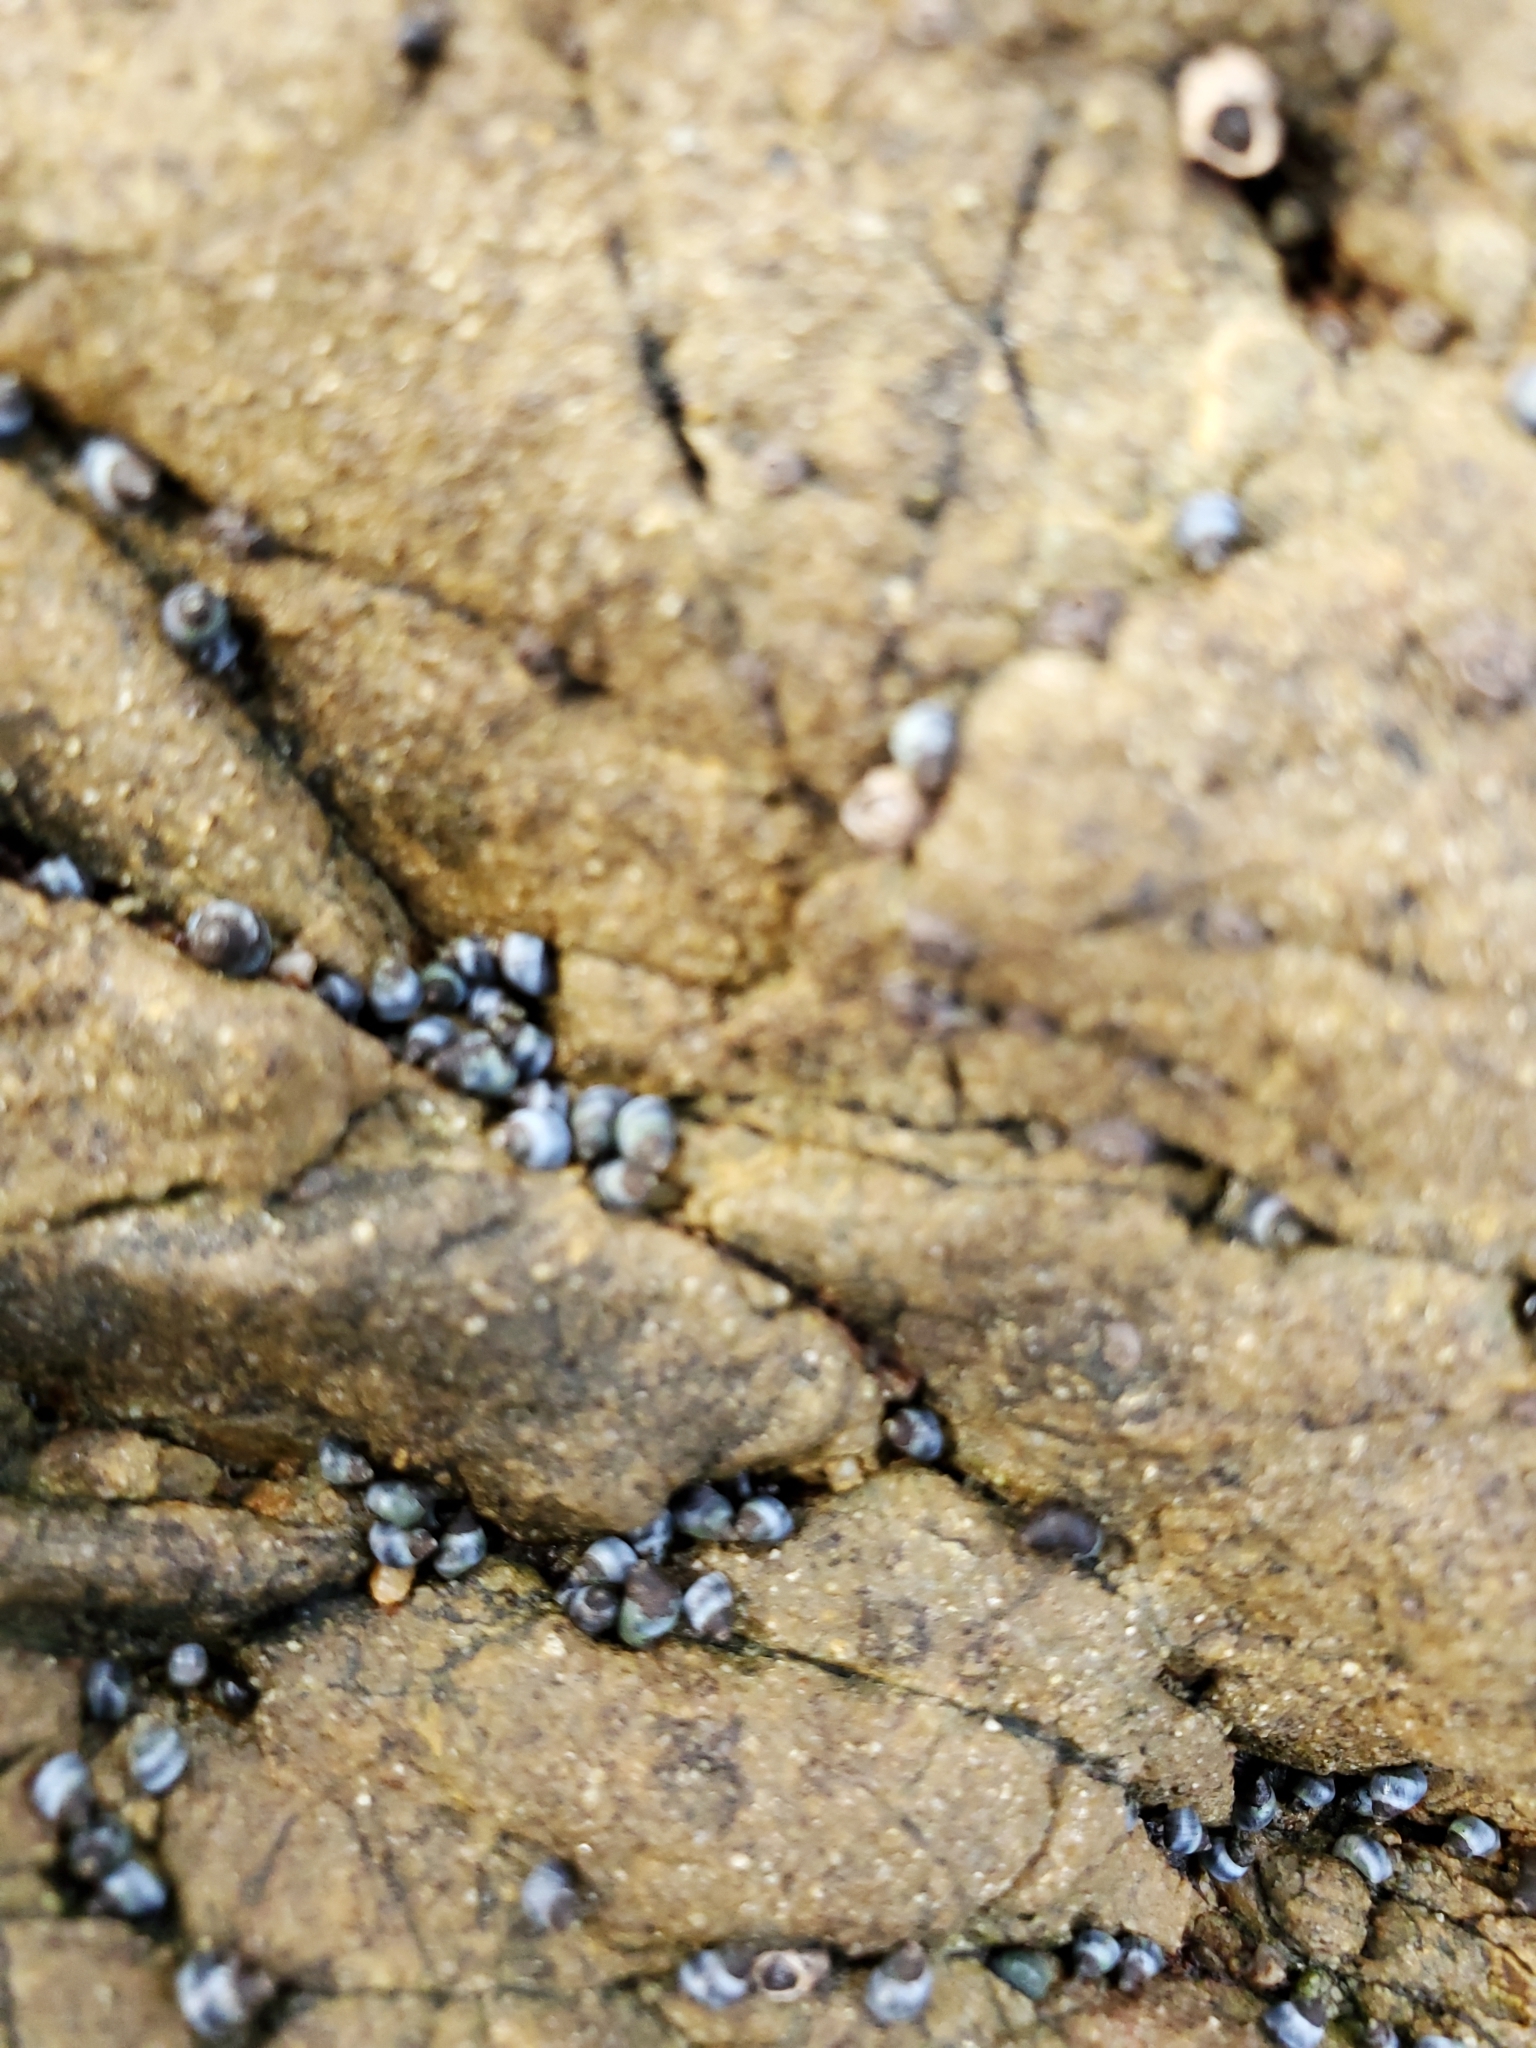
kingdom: Animalia
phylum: Mollusca
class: Gastropoda
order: Littorinimorpha
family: Littorinidae
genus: Austrolittorina
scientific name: Austrolittorina antipodum
